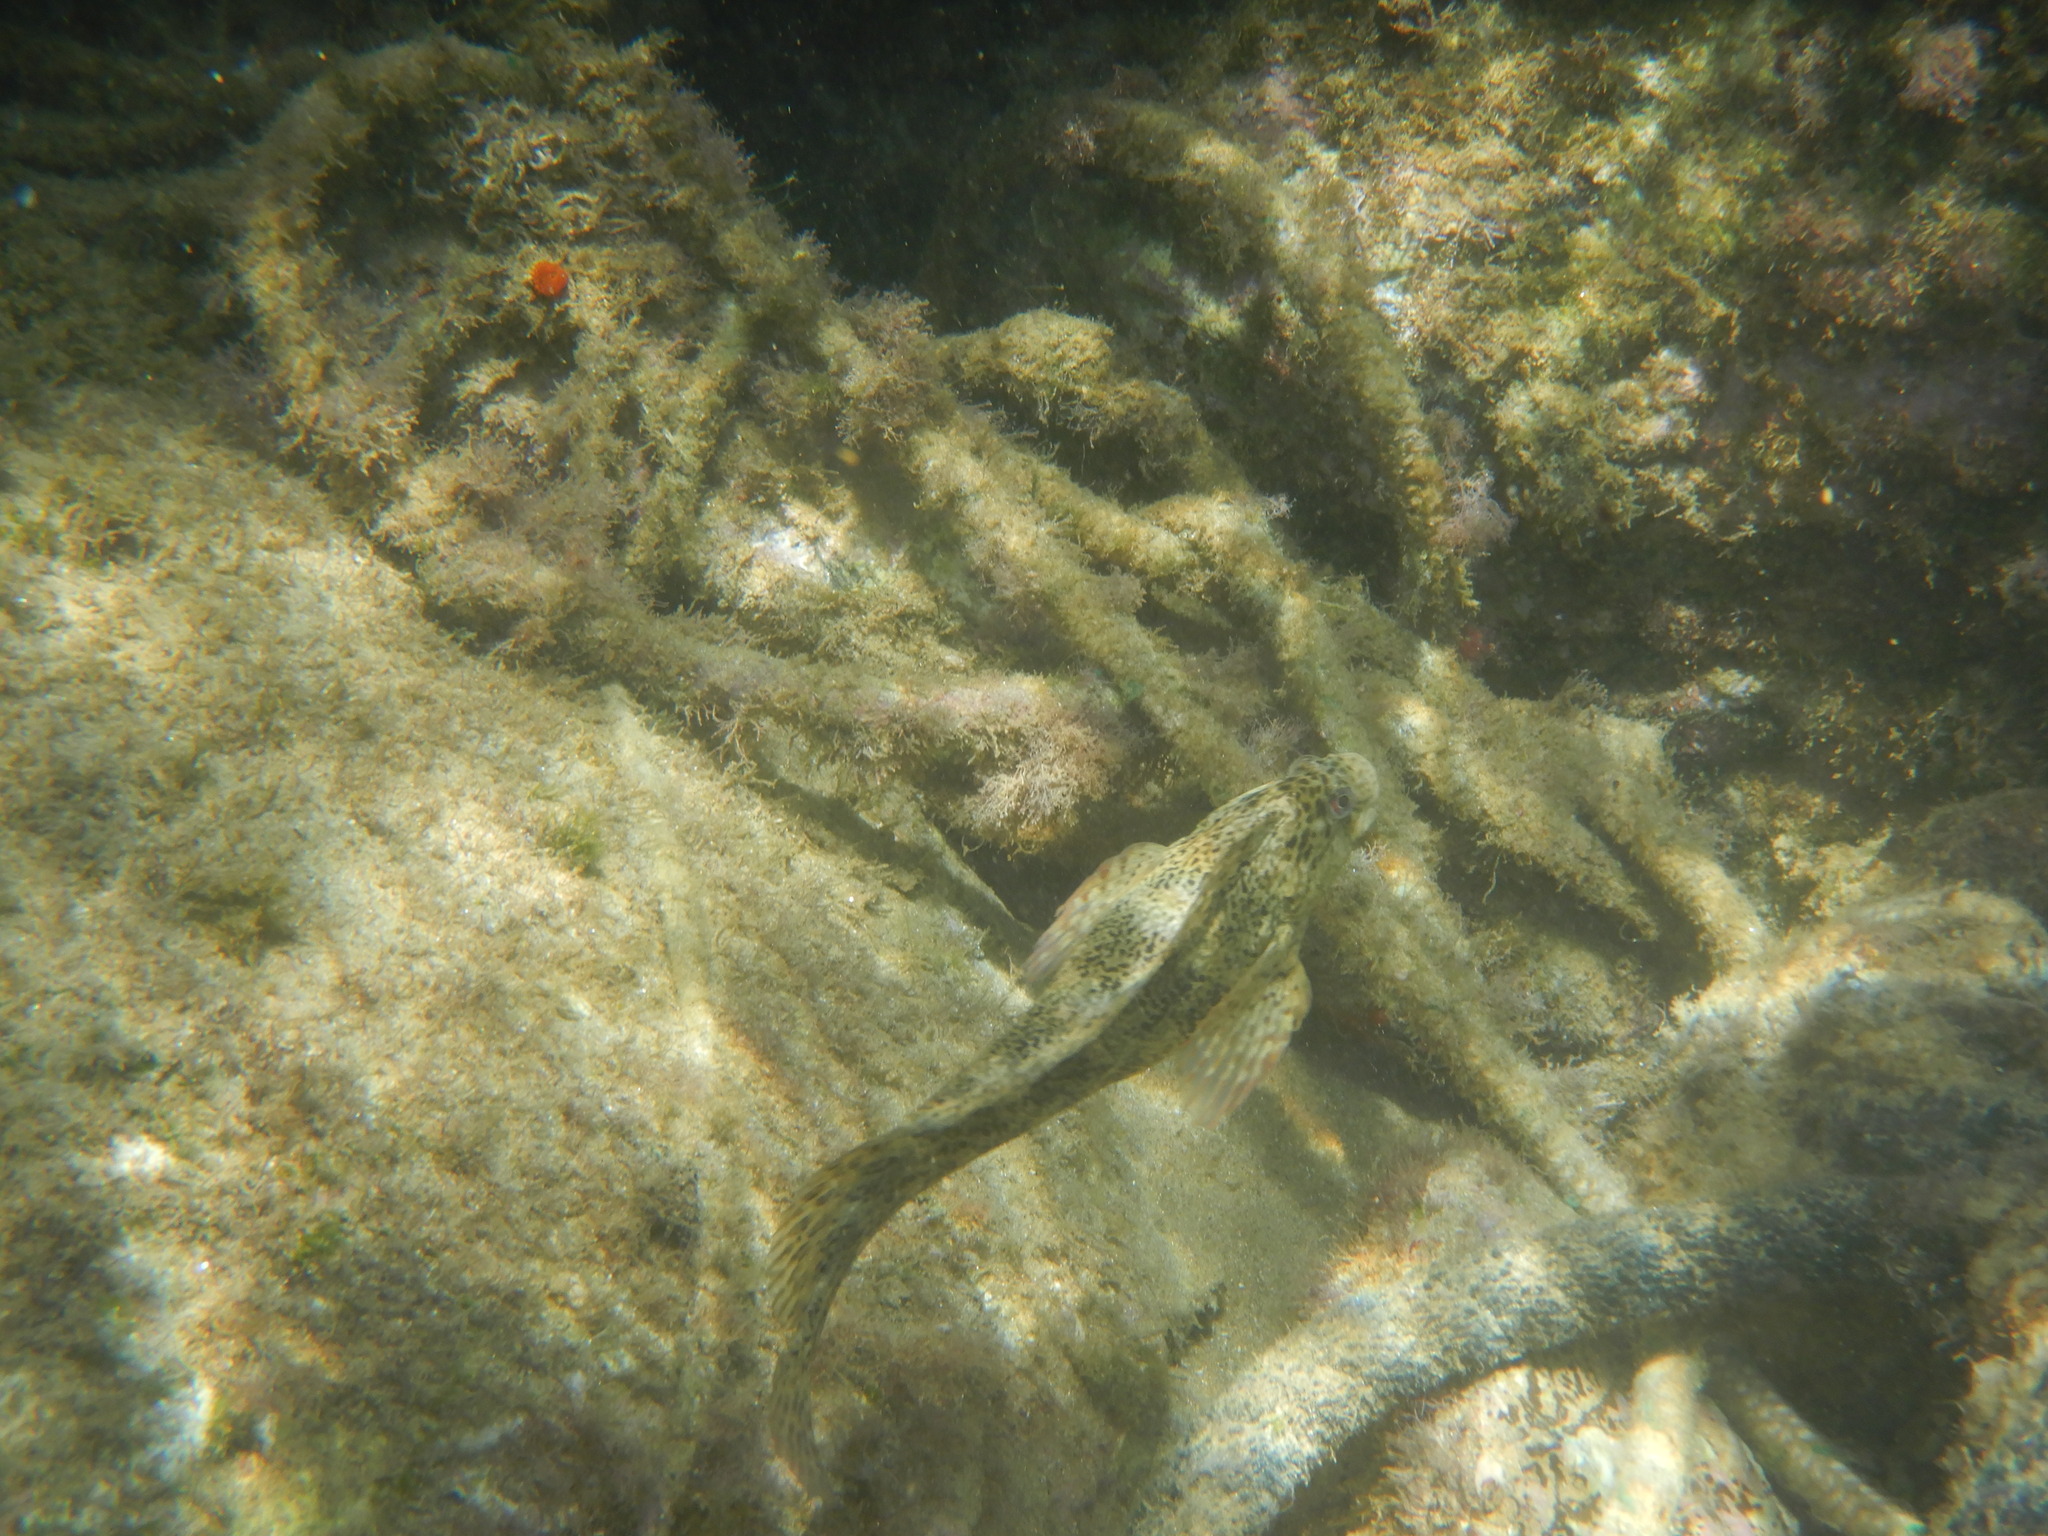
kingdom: Animalia
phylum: Chordata
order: Perciformes
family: Blenniidae
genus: Parablennius
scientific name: Parablennius sanguinolentus
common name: Black sea blenny
